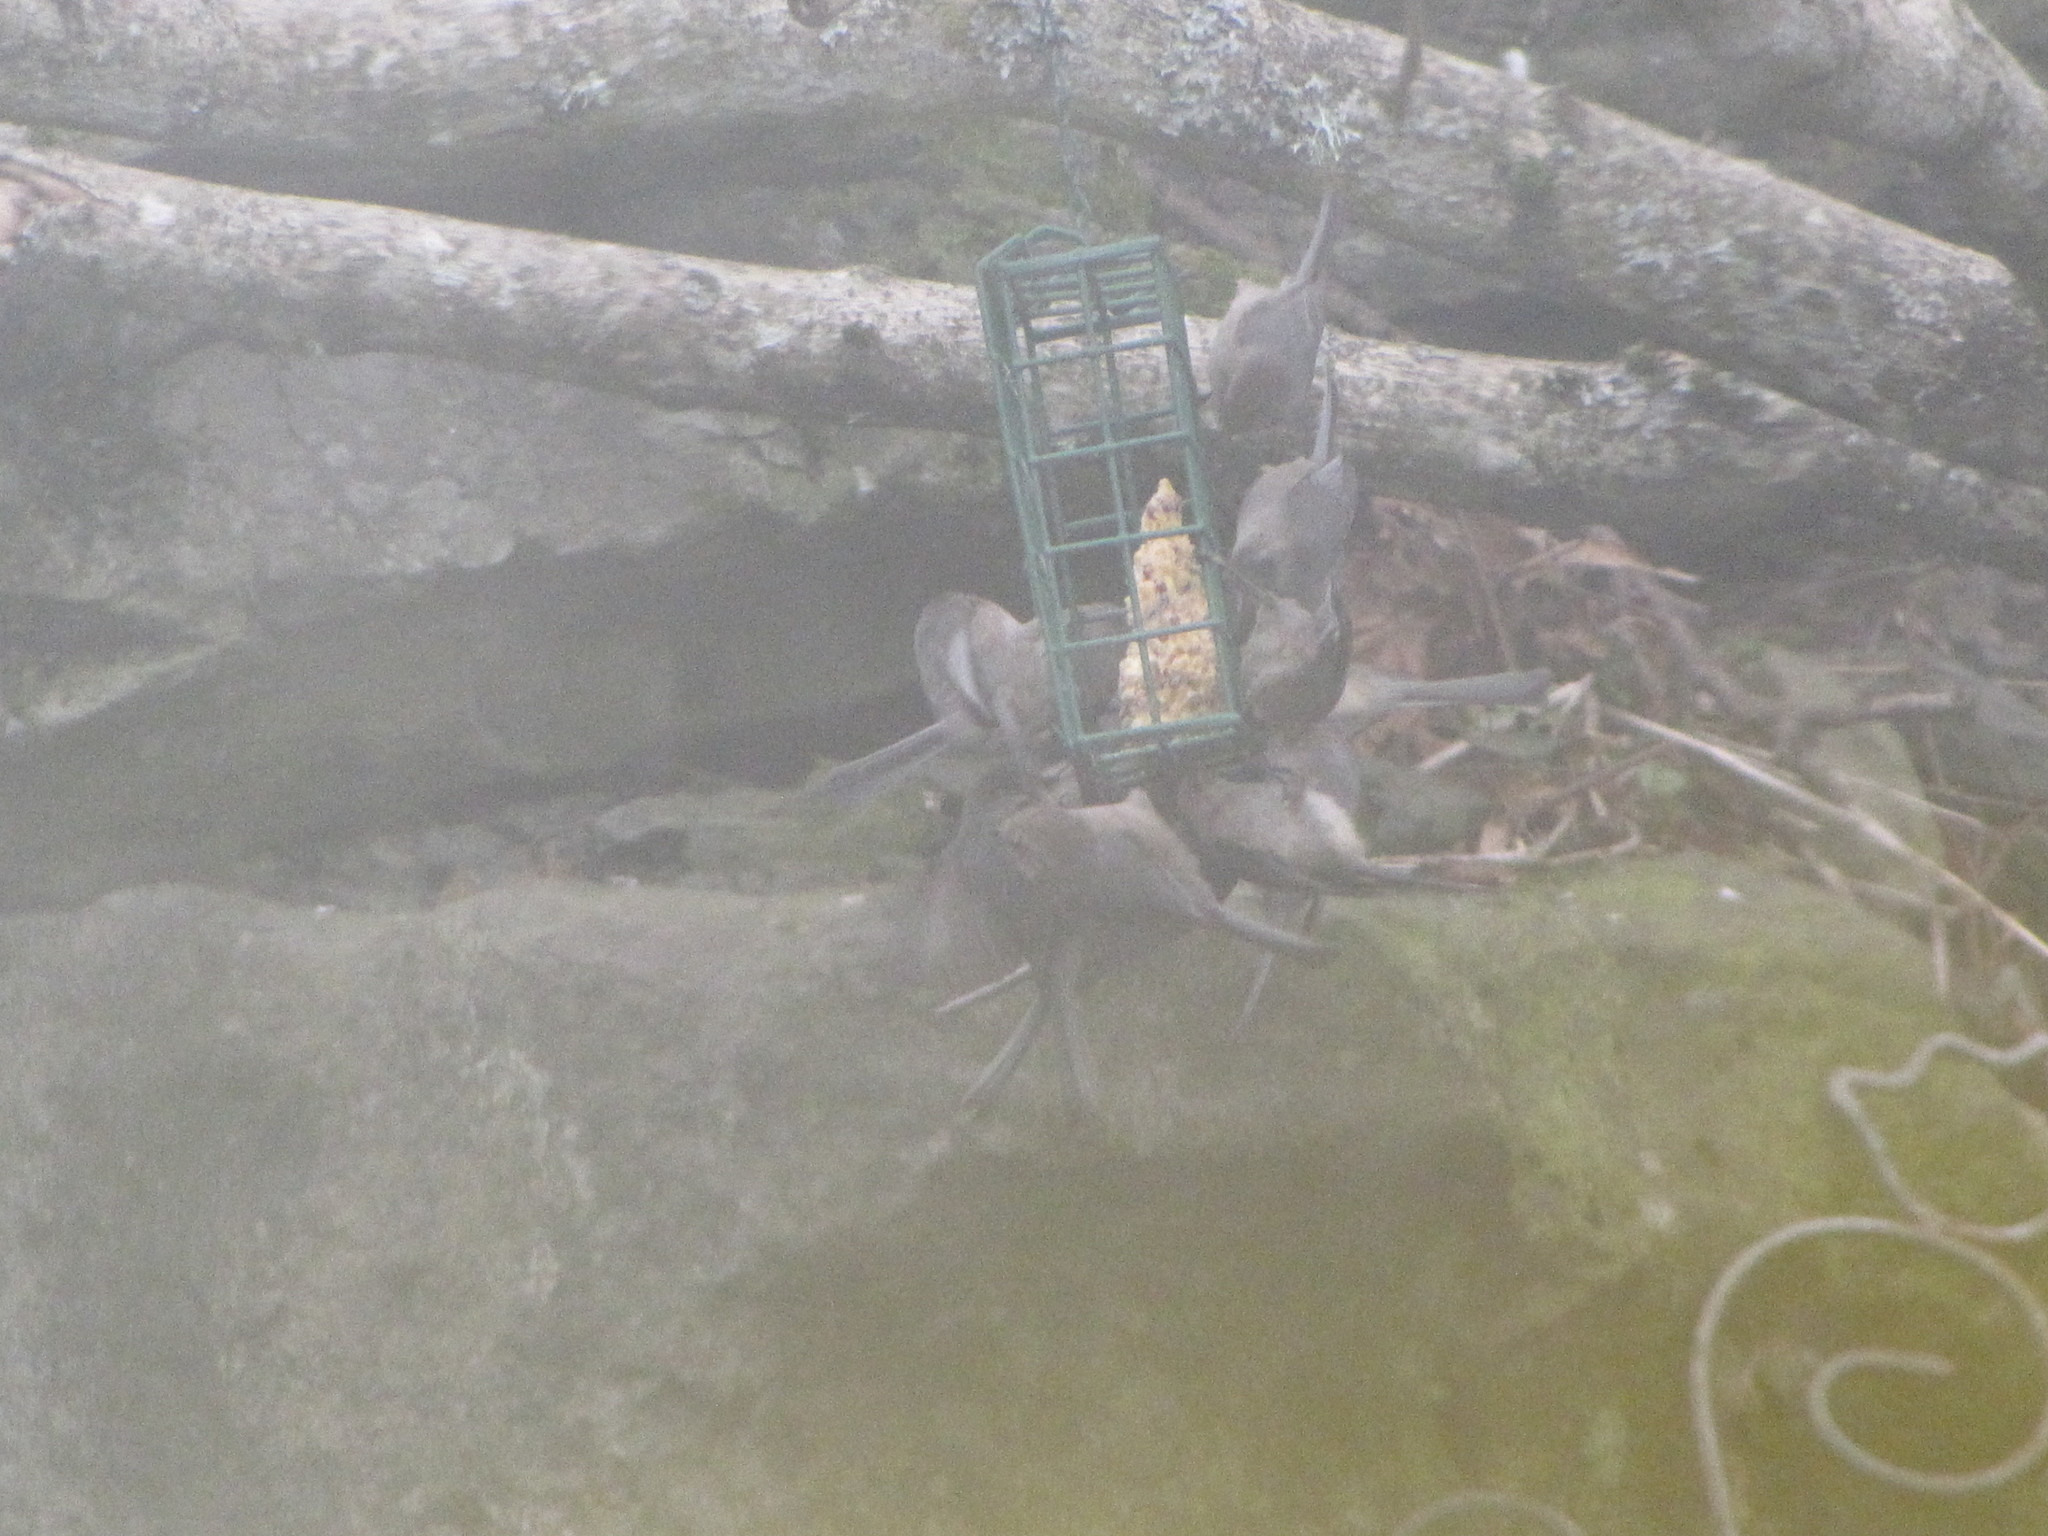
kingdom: Animalia
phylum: Chordata
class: Aves
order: Passeriformes
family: Aegithalidae
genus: Psaltriparus
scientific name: Psaltriparus minimus
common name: American bushtit
